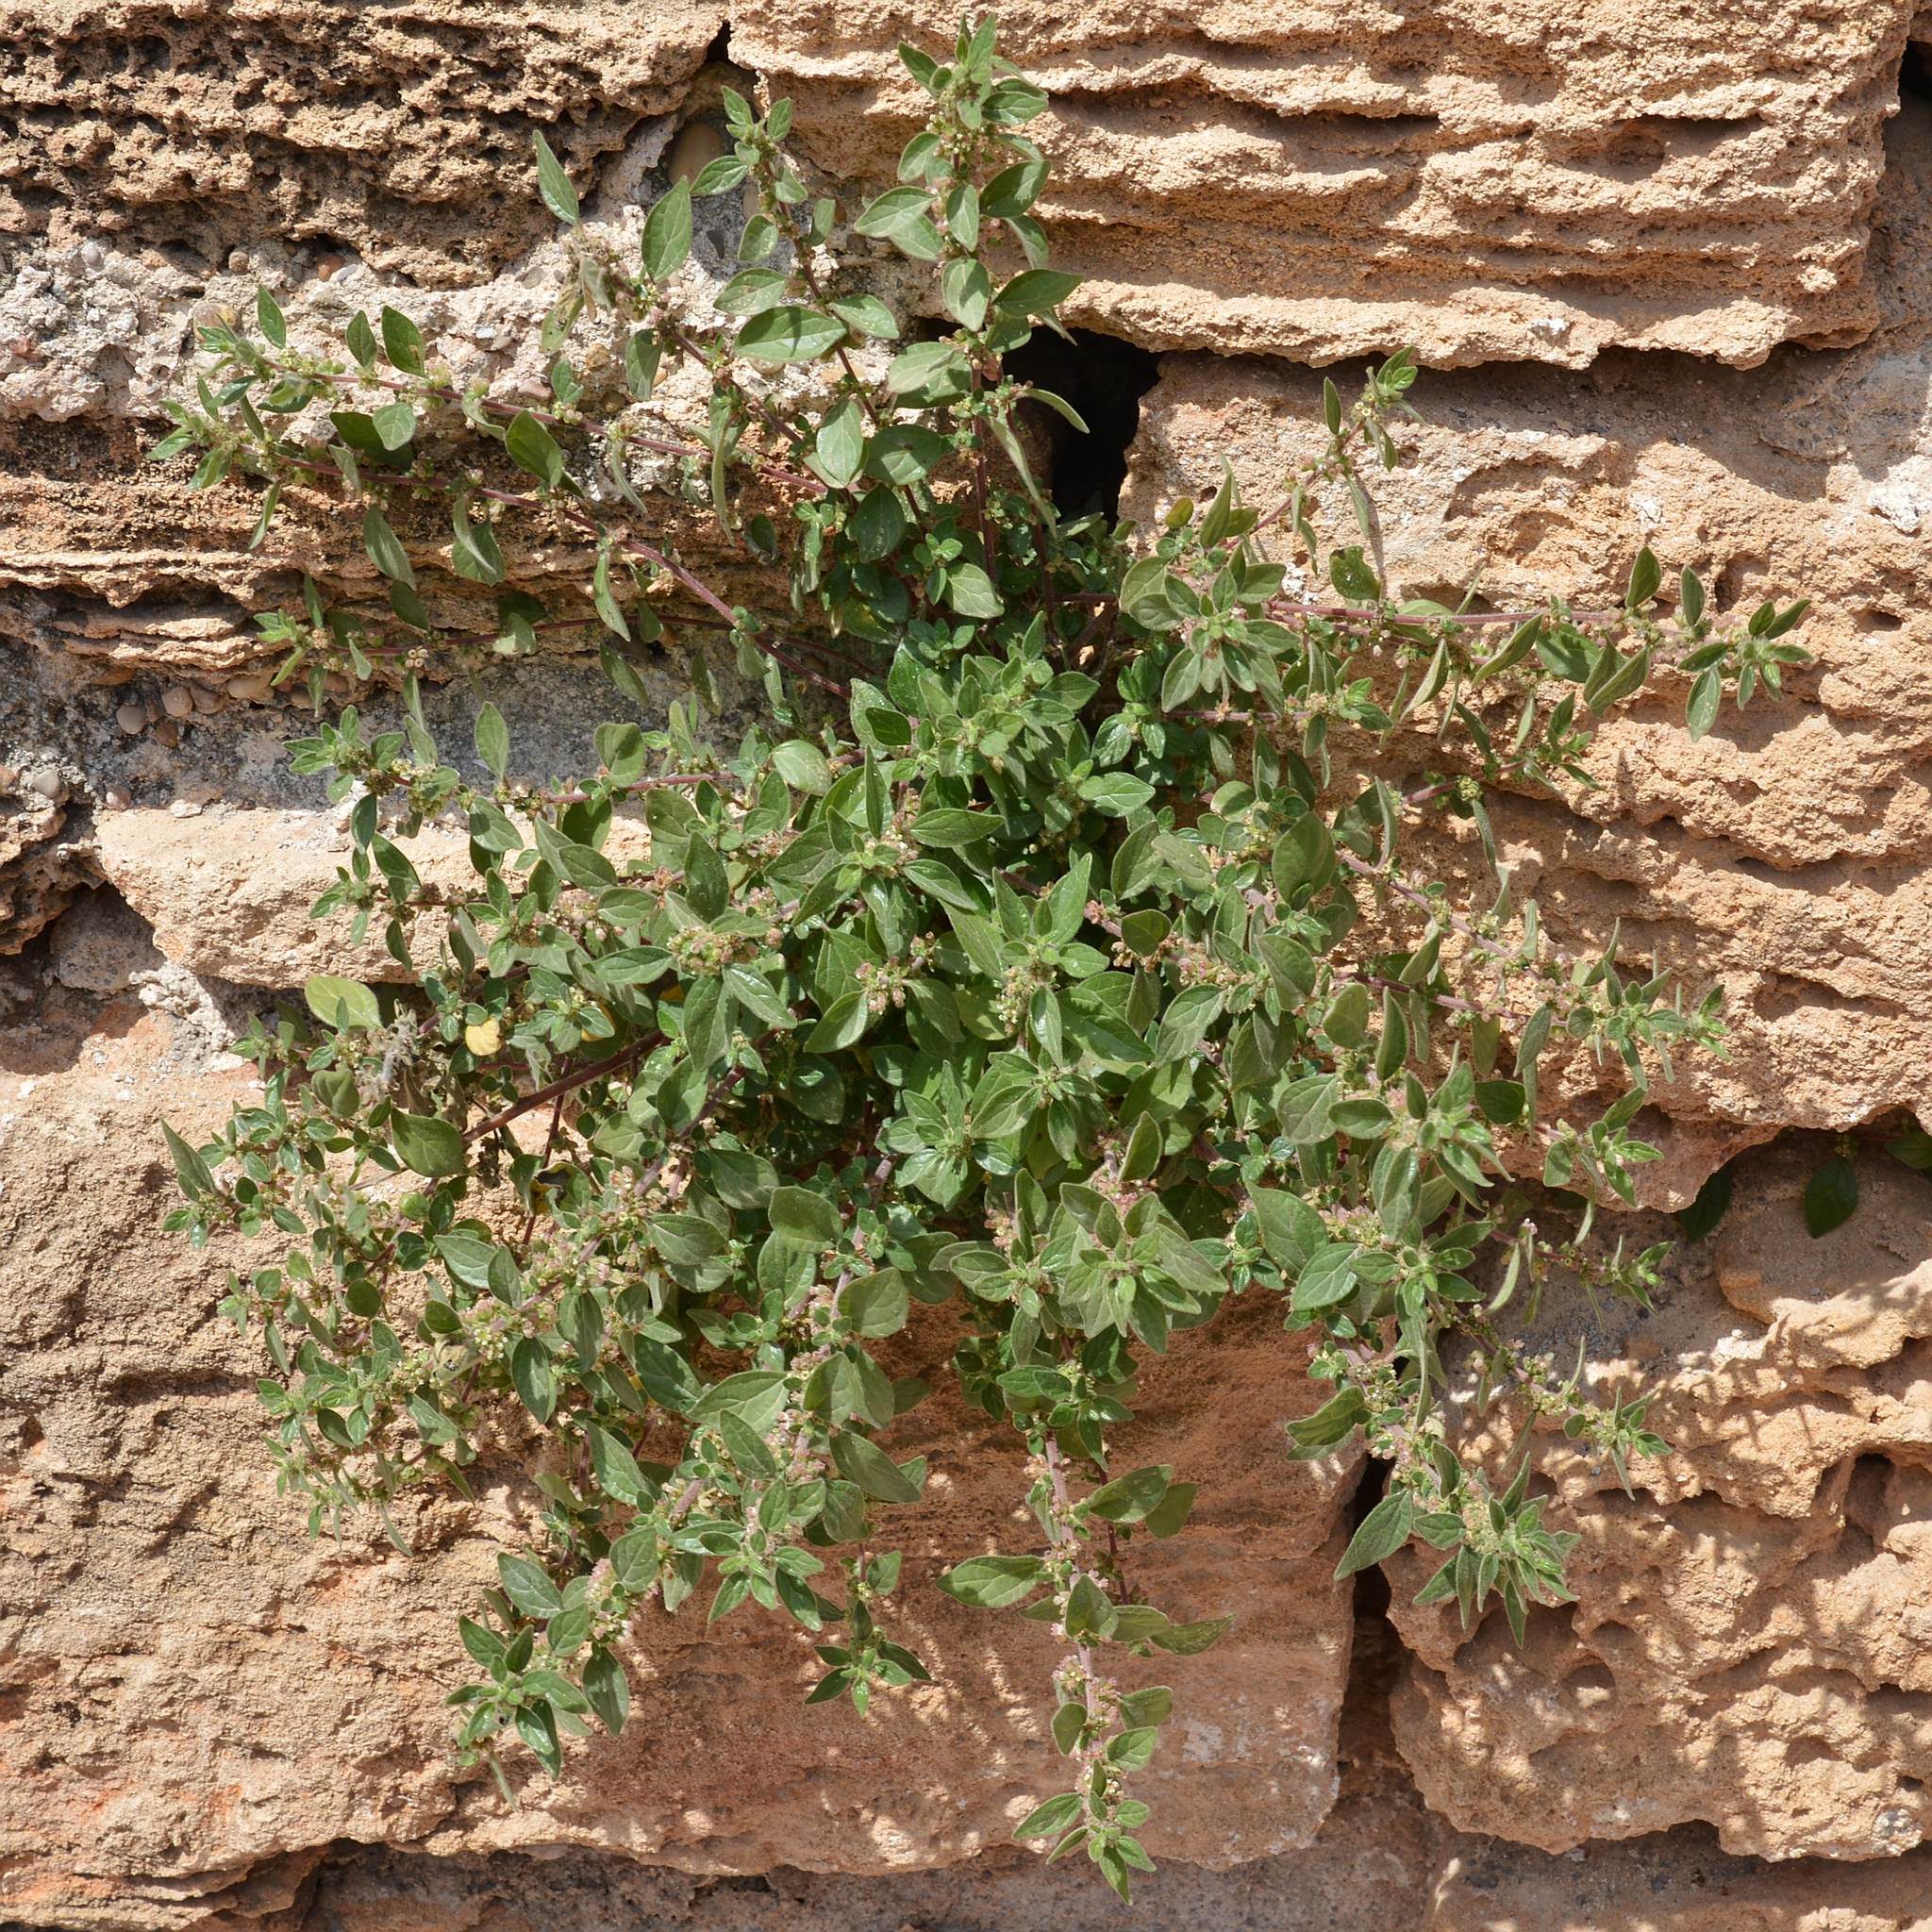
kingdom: Plantae
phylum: Tracheophyta
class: Magnoliopsida
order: Rosales
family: Urticaceae
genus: Parietaria
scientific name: Parietaria judaica
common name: Pellitory-of-the-wall
